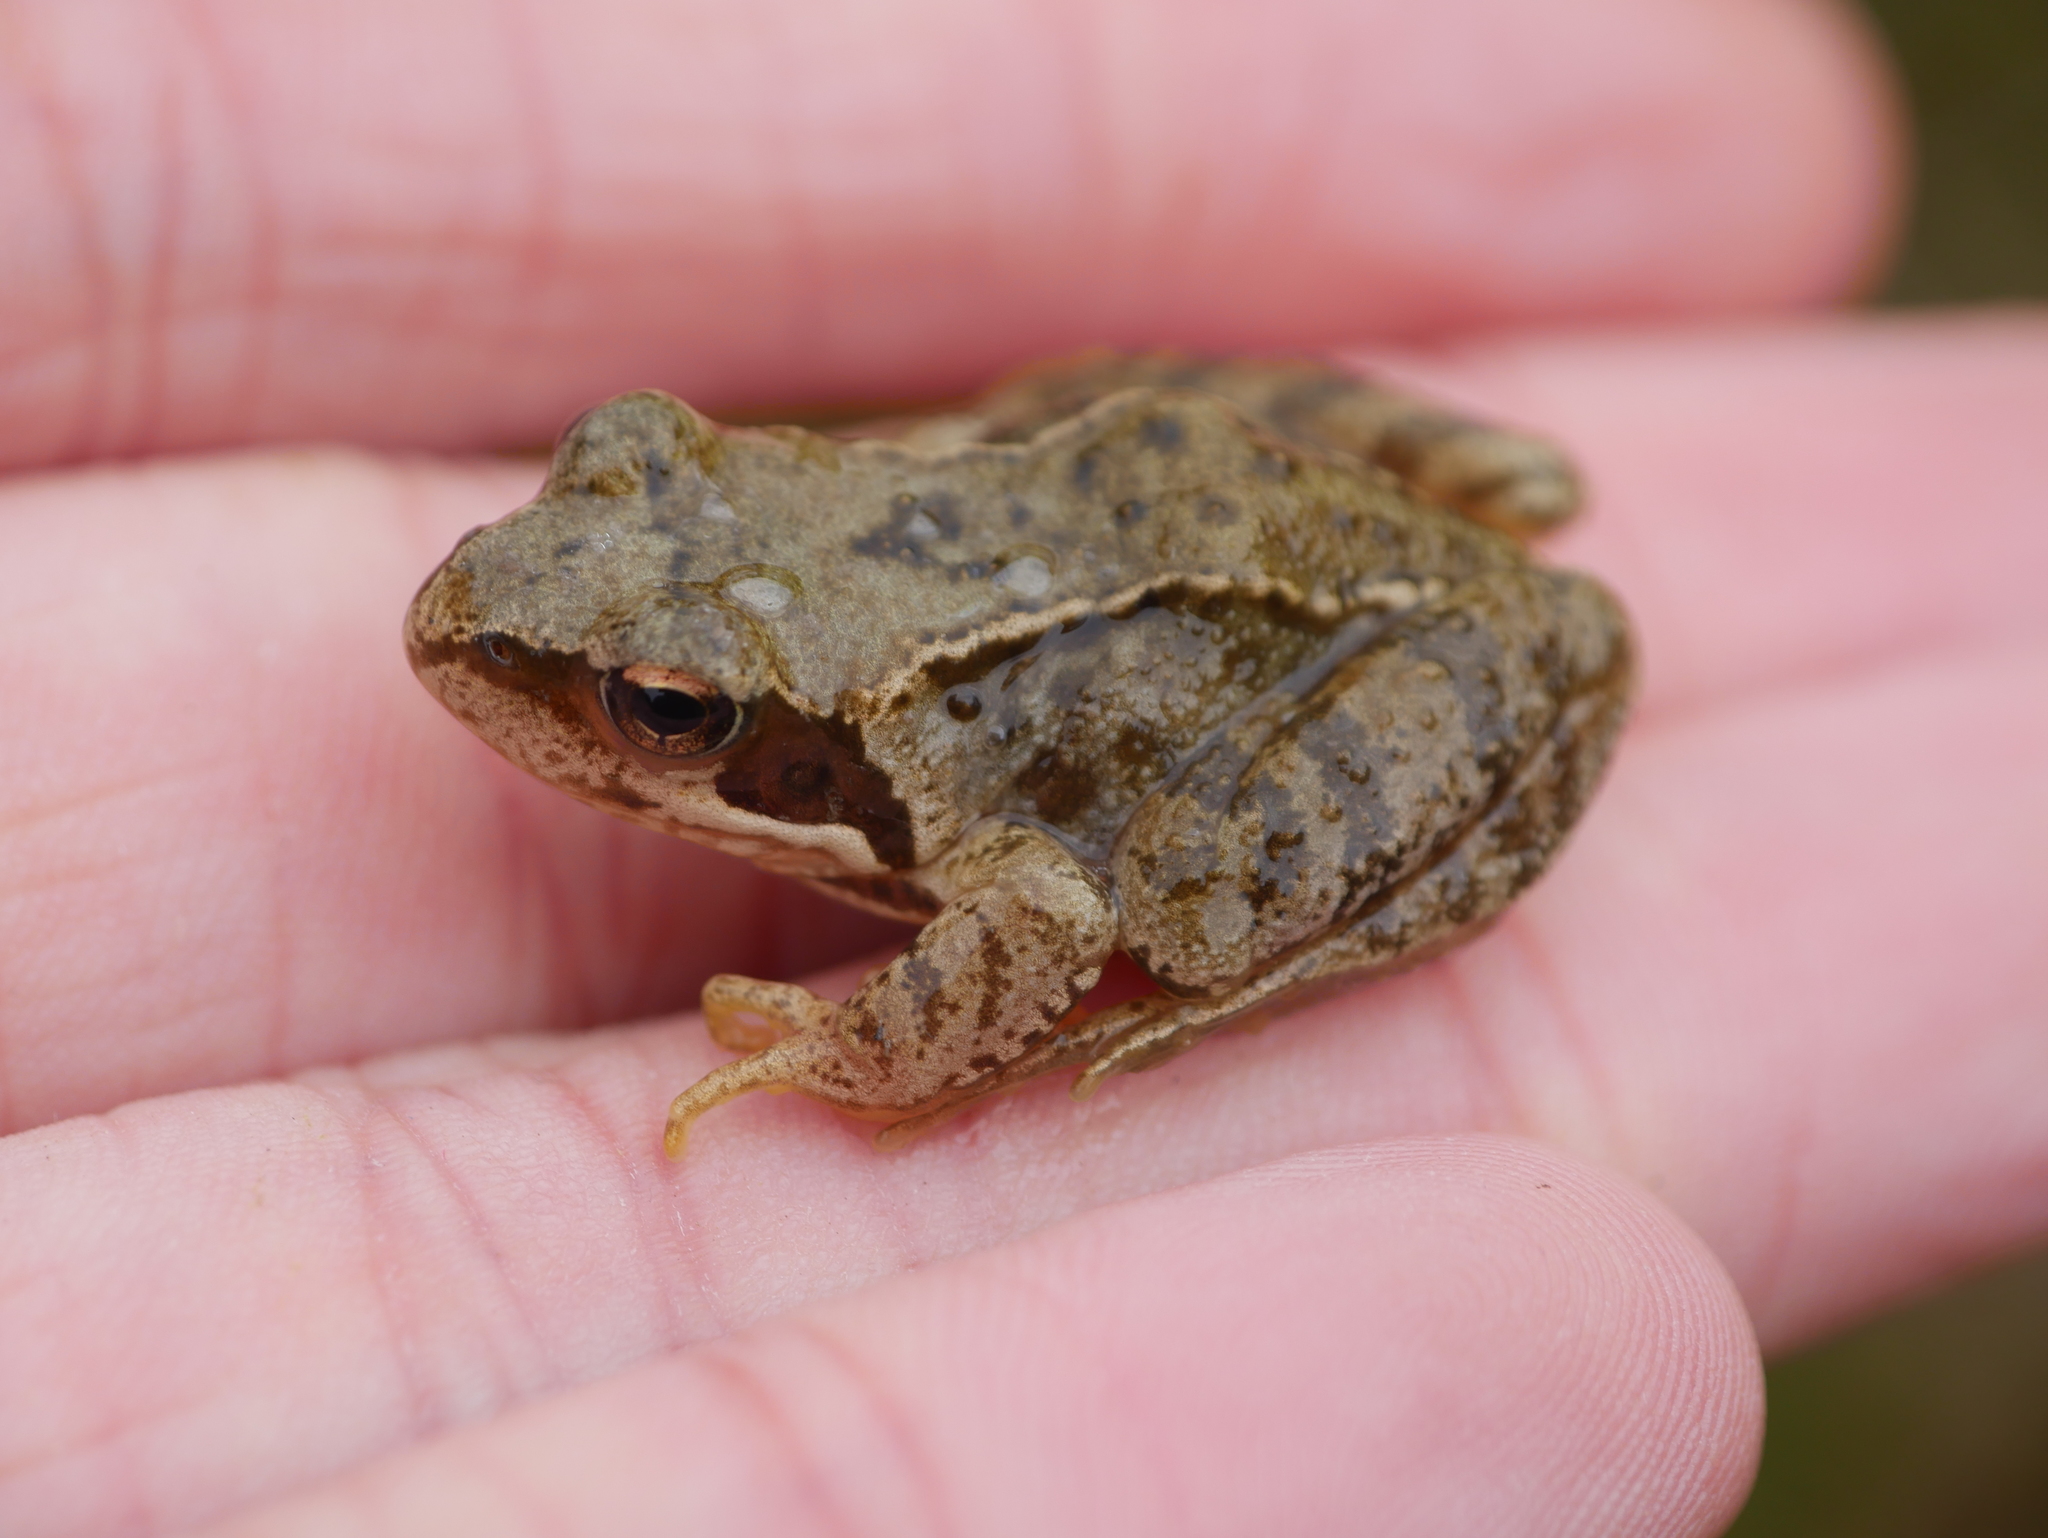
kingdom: Animalia
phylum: Chordata
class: Amphibia
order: Anura
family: Ranidae
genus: Rana
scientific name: Rana temporaria
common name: Common frog
